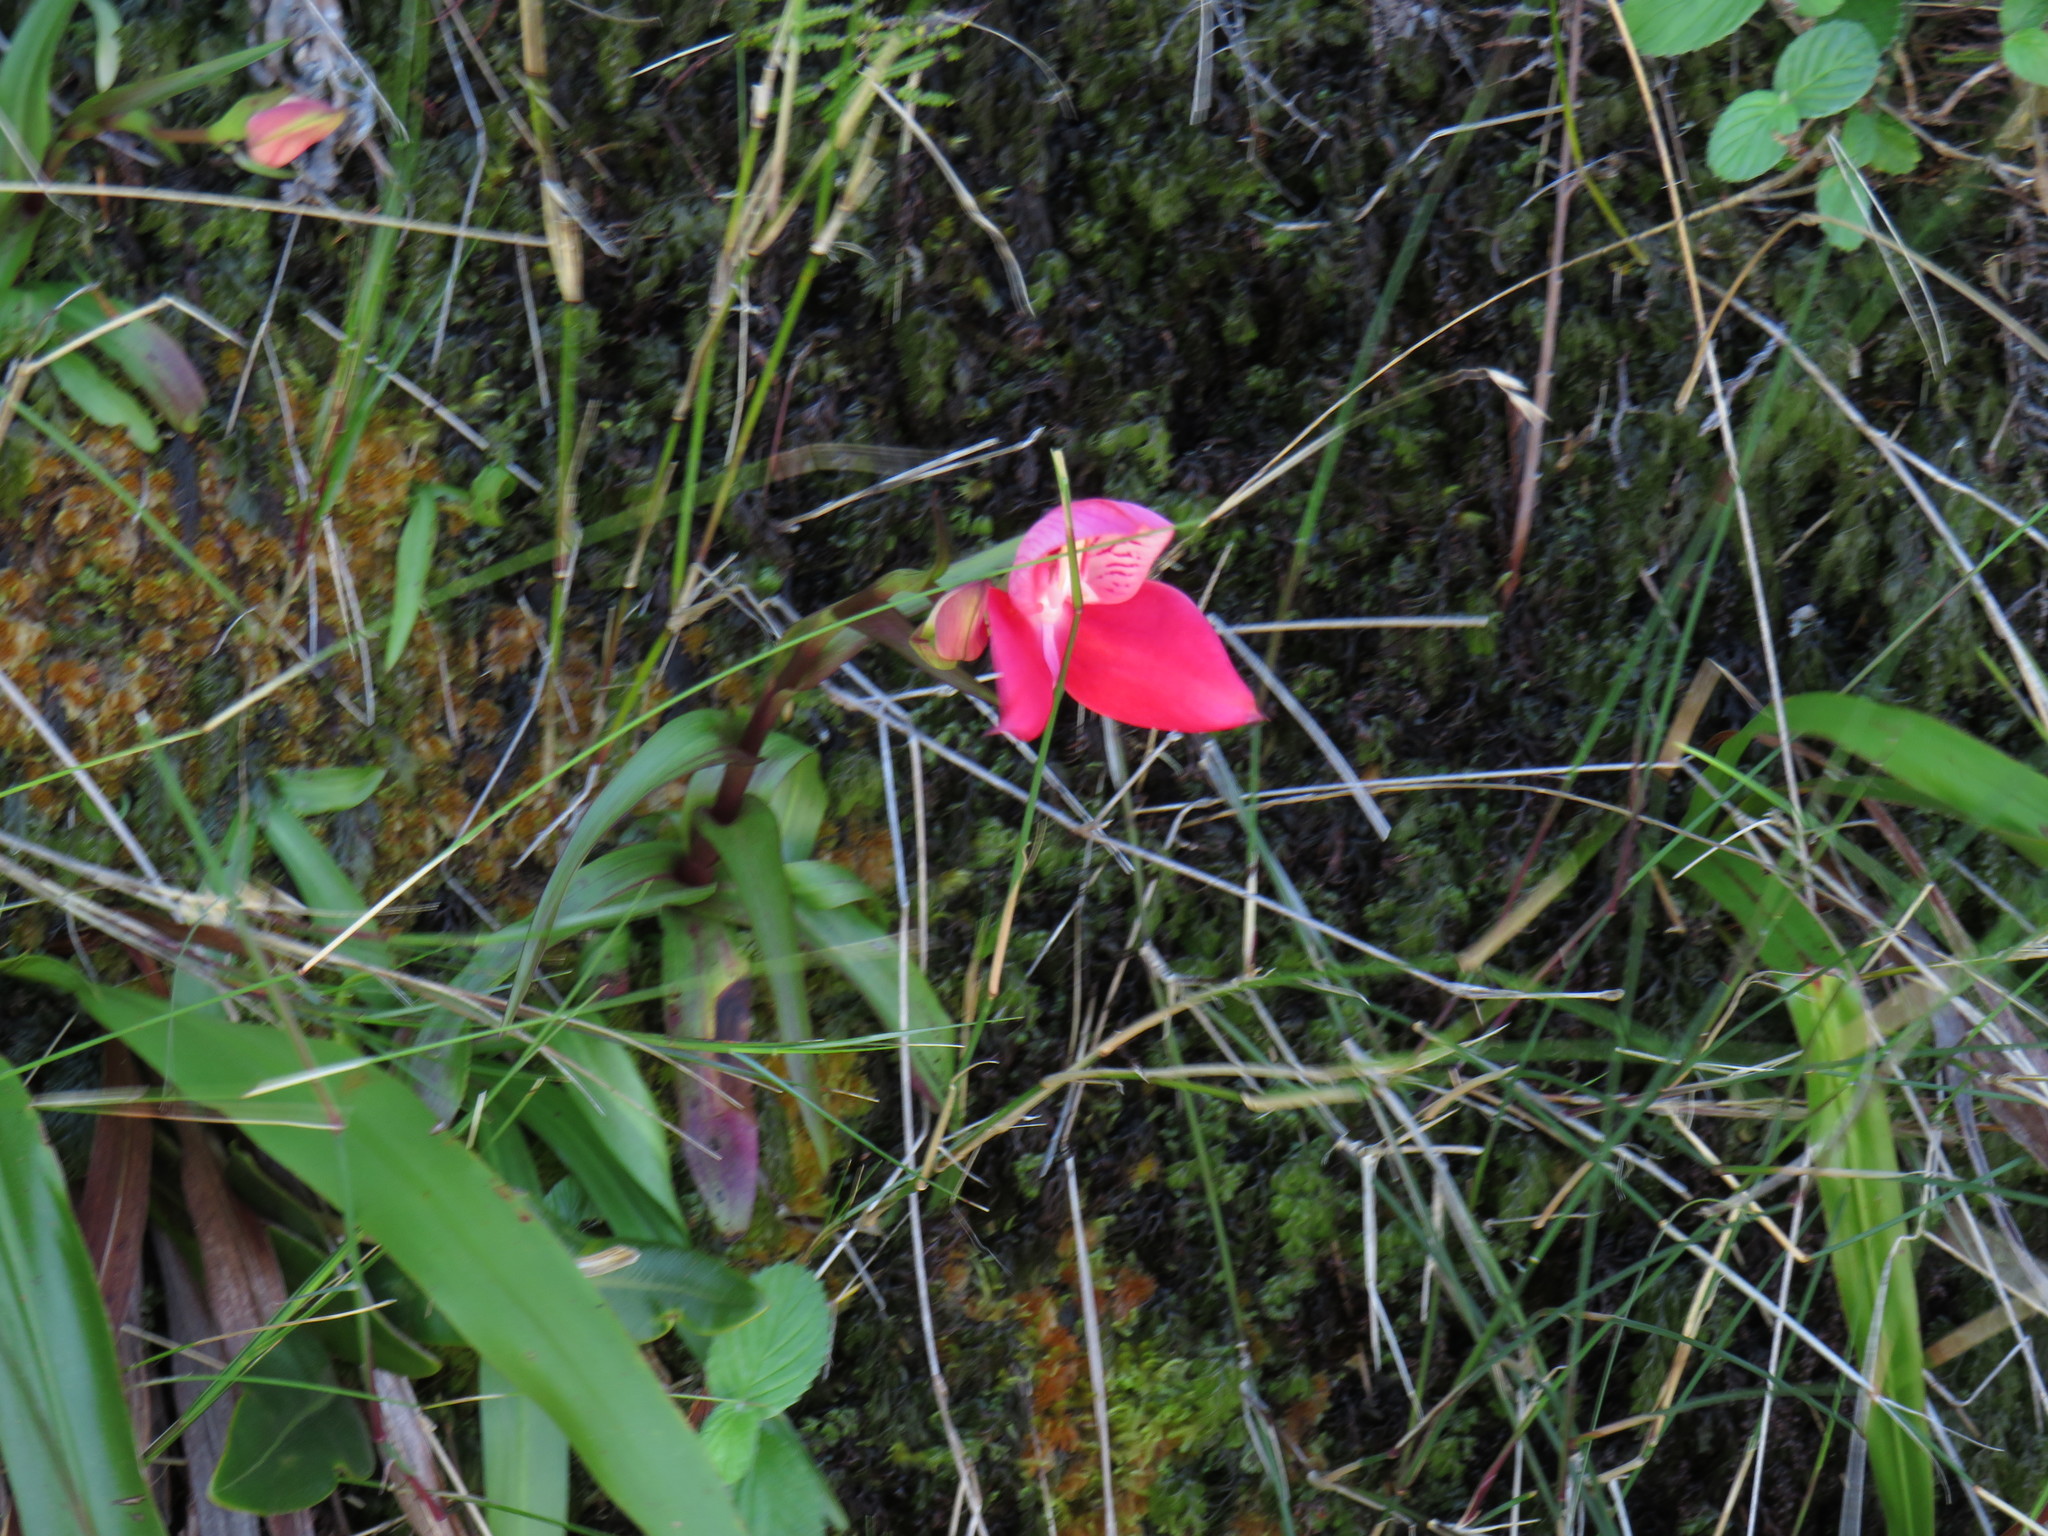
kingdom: Plantae
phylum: Tracheophyta
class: Liliopsida
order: Asparagales
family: Orchidaceae
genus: Disa
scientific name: Disa uniflora
